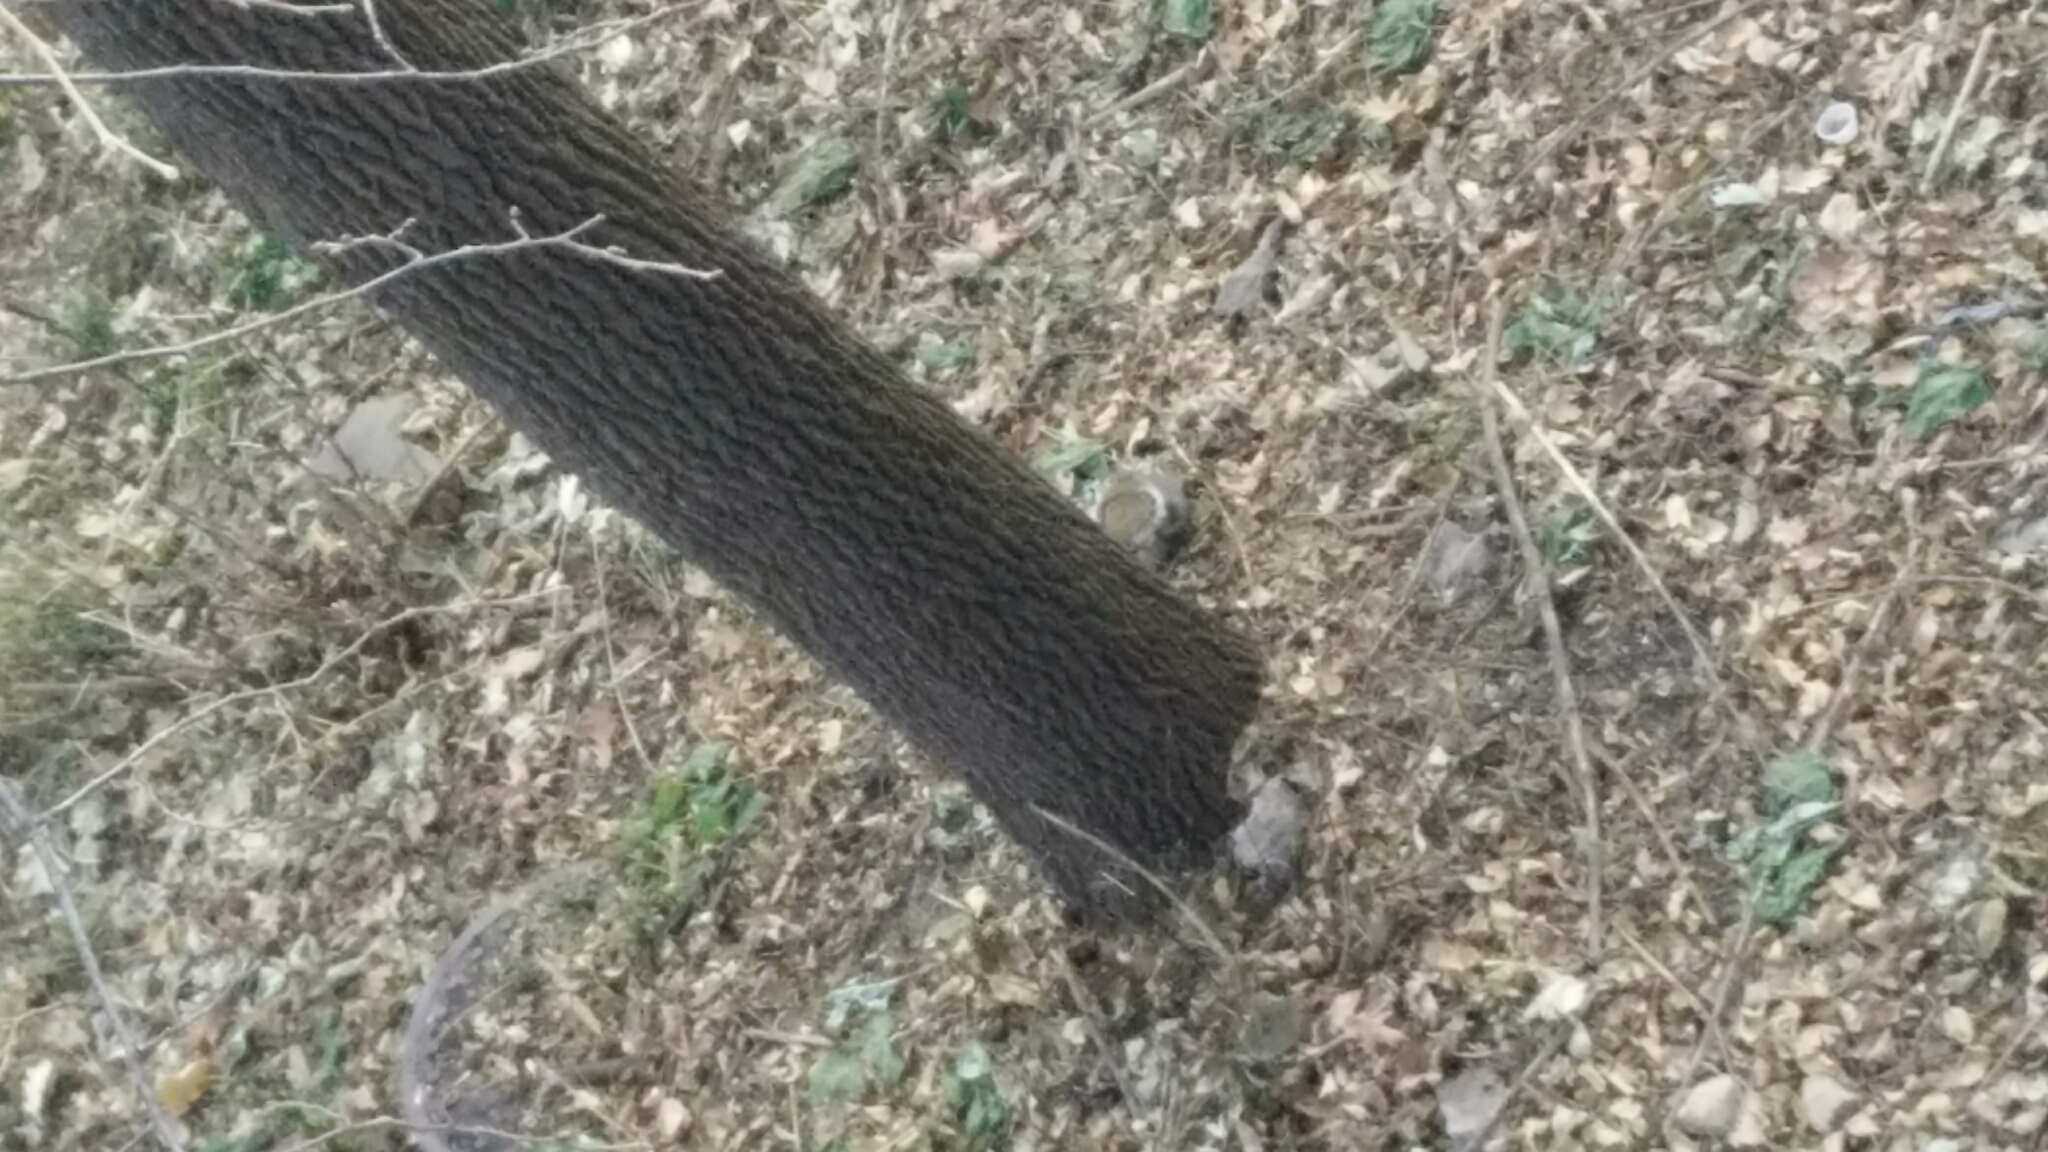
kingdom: Animalia
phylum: Chordata
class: Mammalia
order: Rodentia
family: Sciuridae
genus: Sciurus
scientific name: Sciurus carolinensis
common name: Eastern gray squirrel
